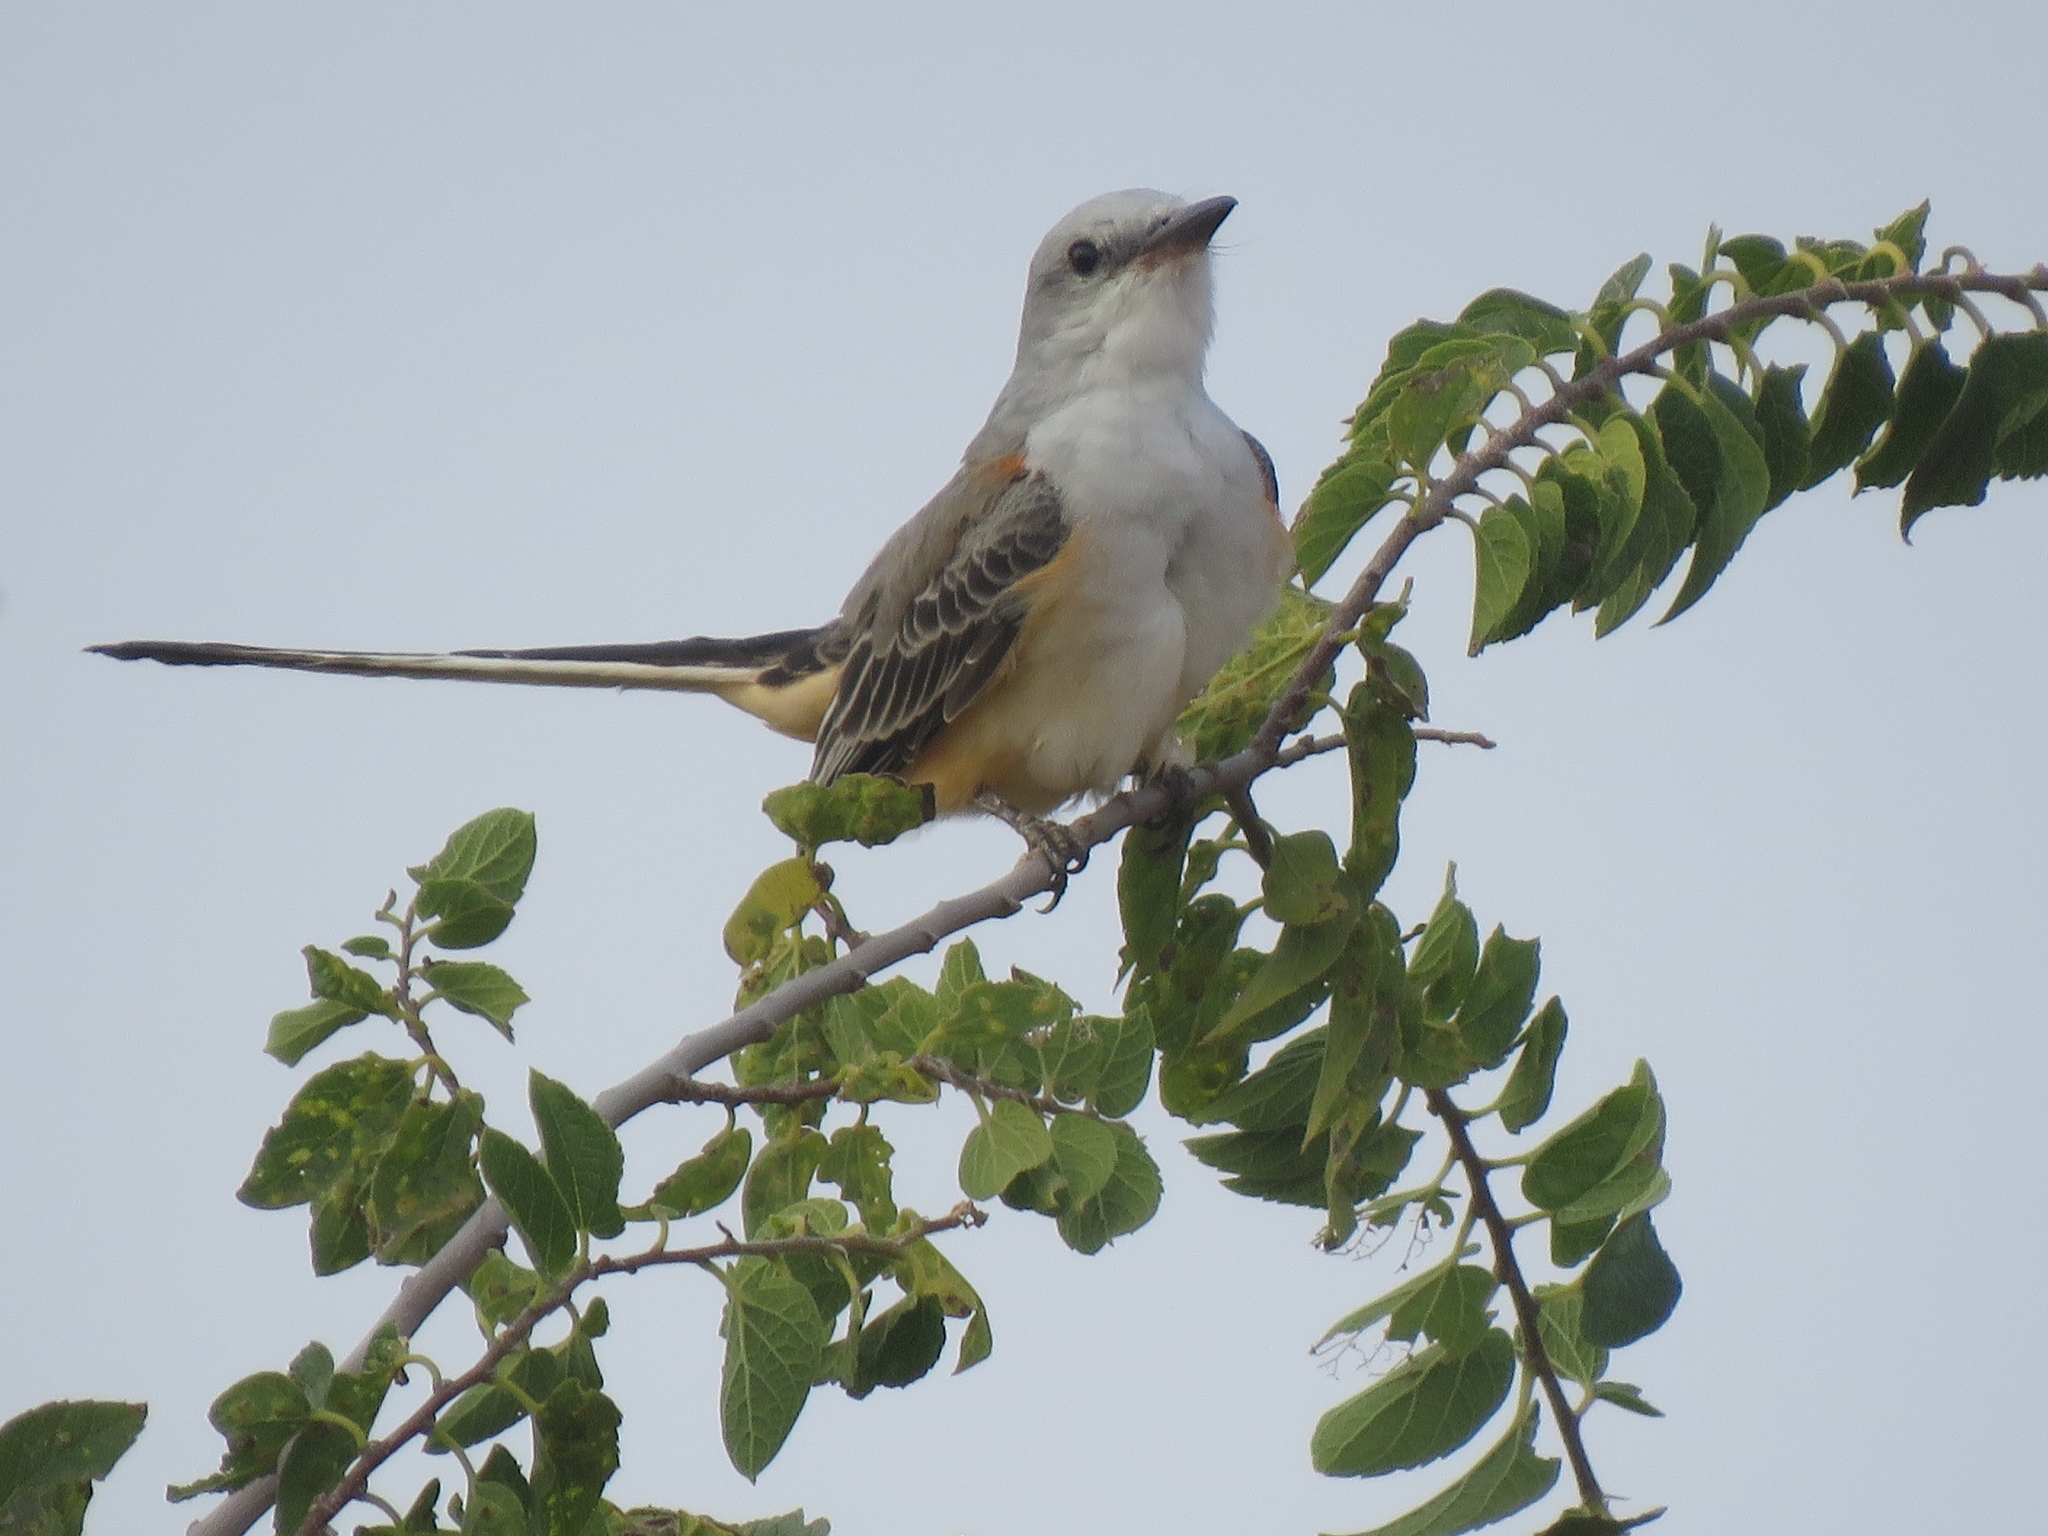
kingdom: Animalia
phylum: Chordata
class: Aves
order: Passeriformes
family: Tyrannidae
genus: Tyrannus
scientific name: Tyrannus forficatus
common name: Scissor-tailed flycatcher
